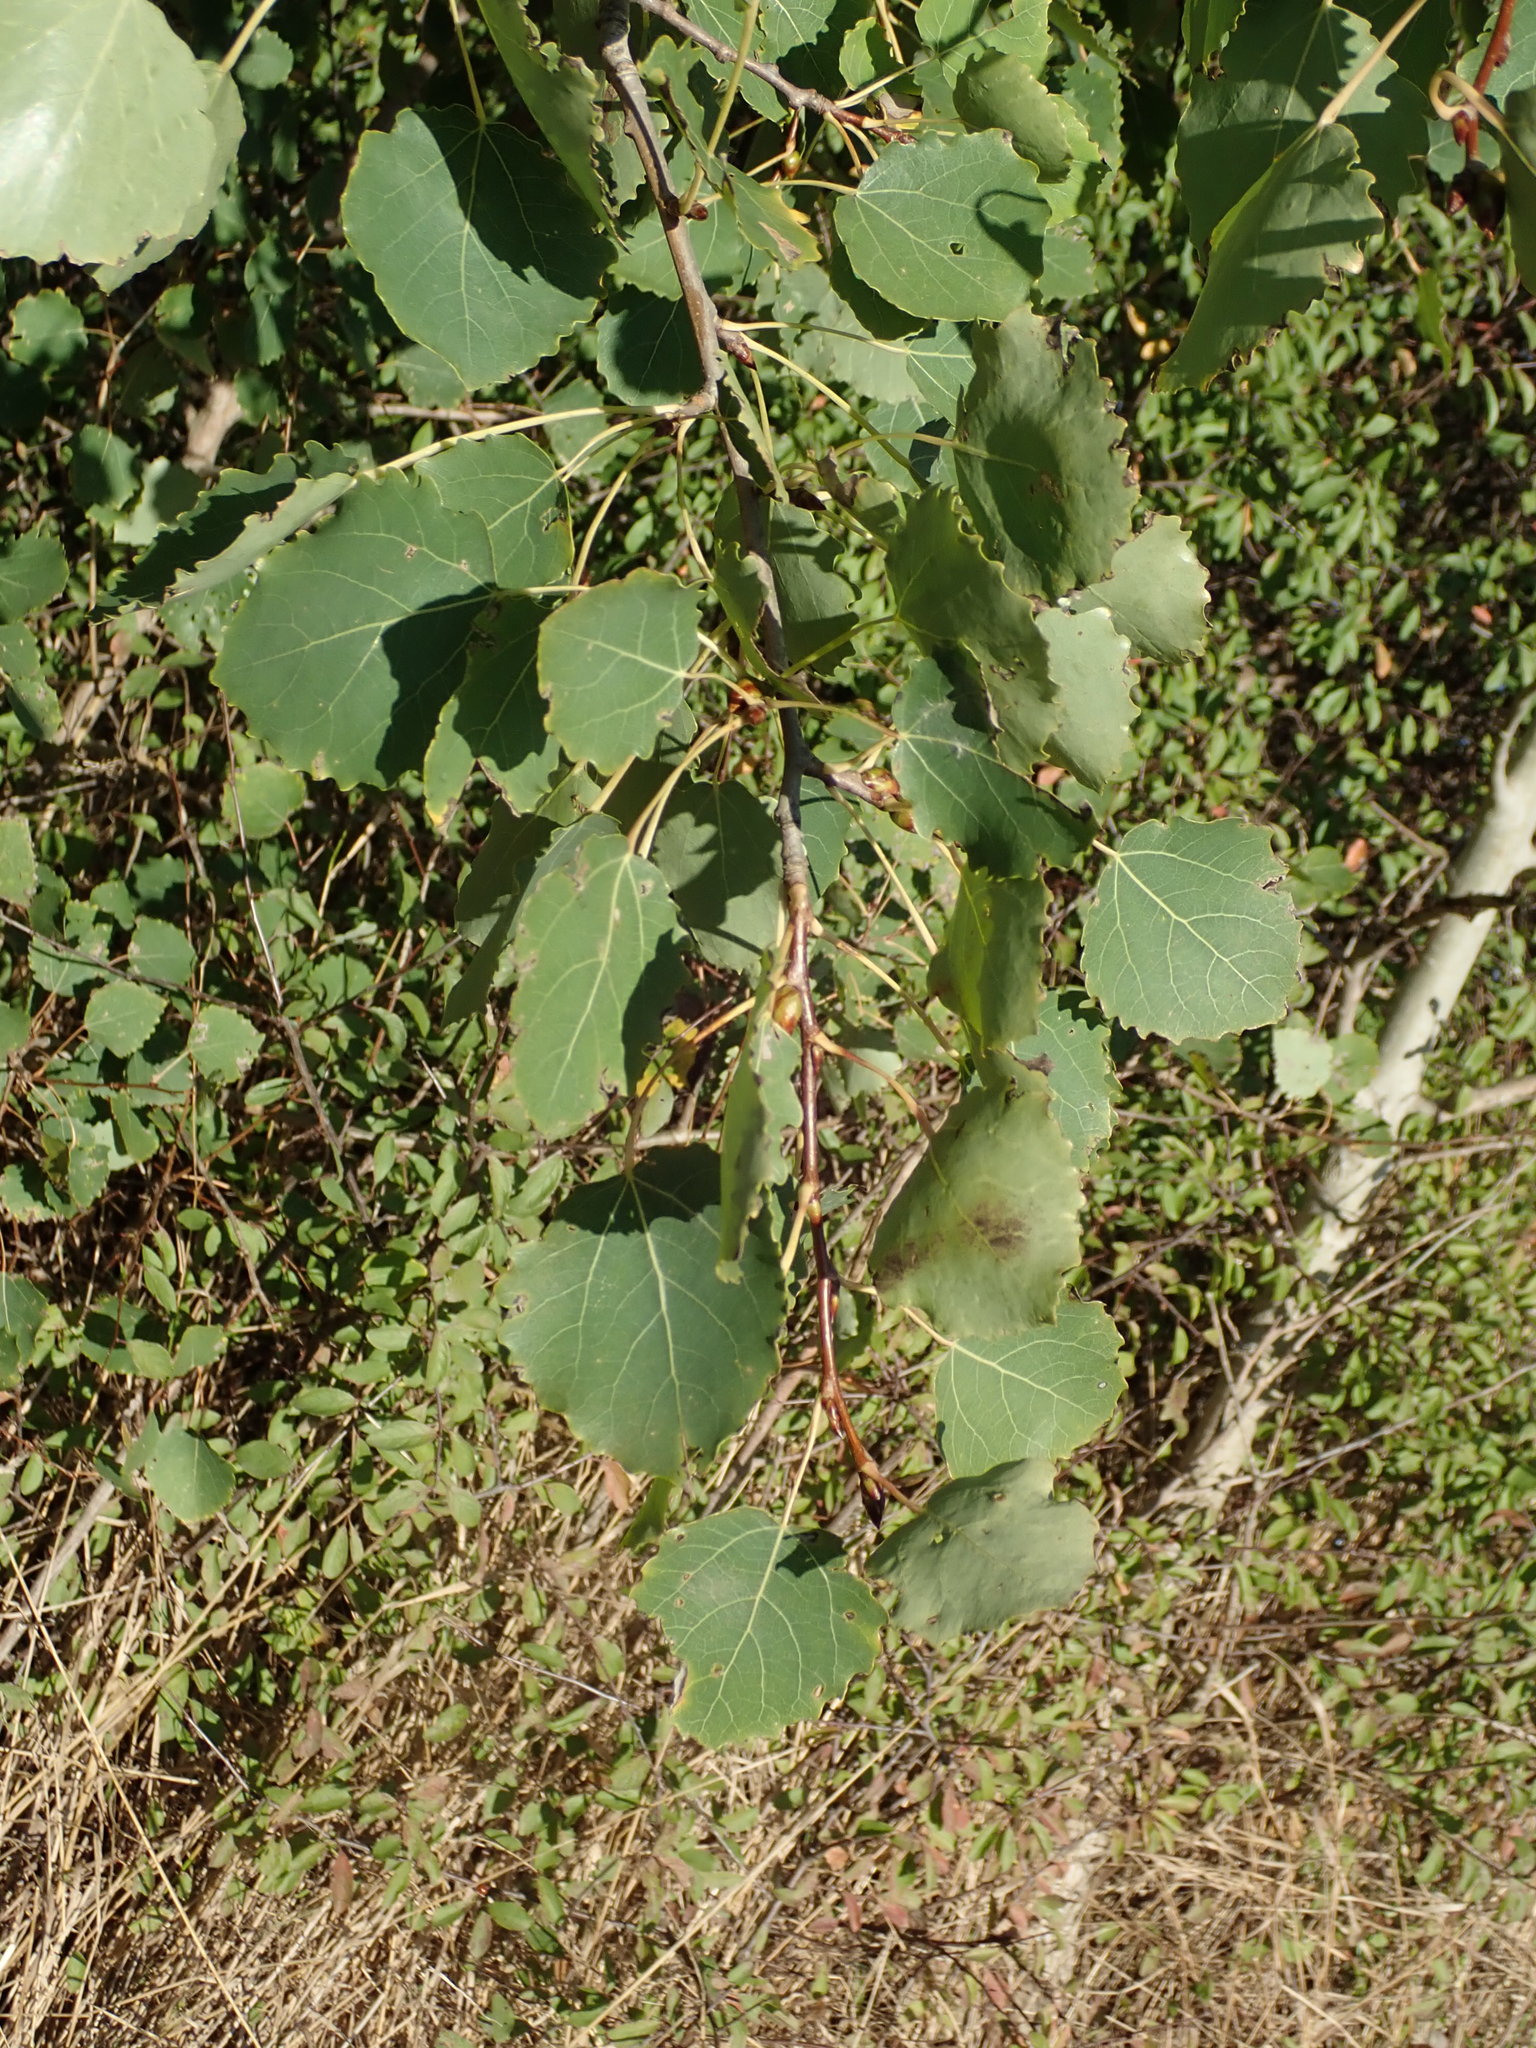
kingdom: Plantae
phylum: Tracheophyta
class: Magnoliopsida
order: Malpighiales
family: Salicaceae
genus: Populus
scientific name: Populus tremula
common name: European aspen
